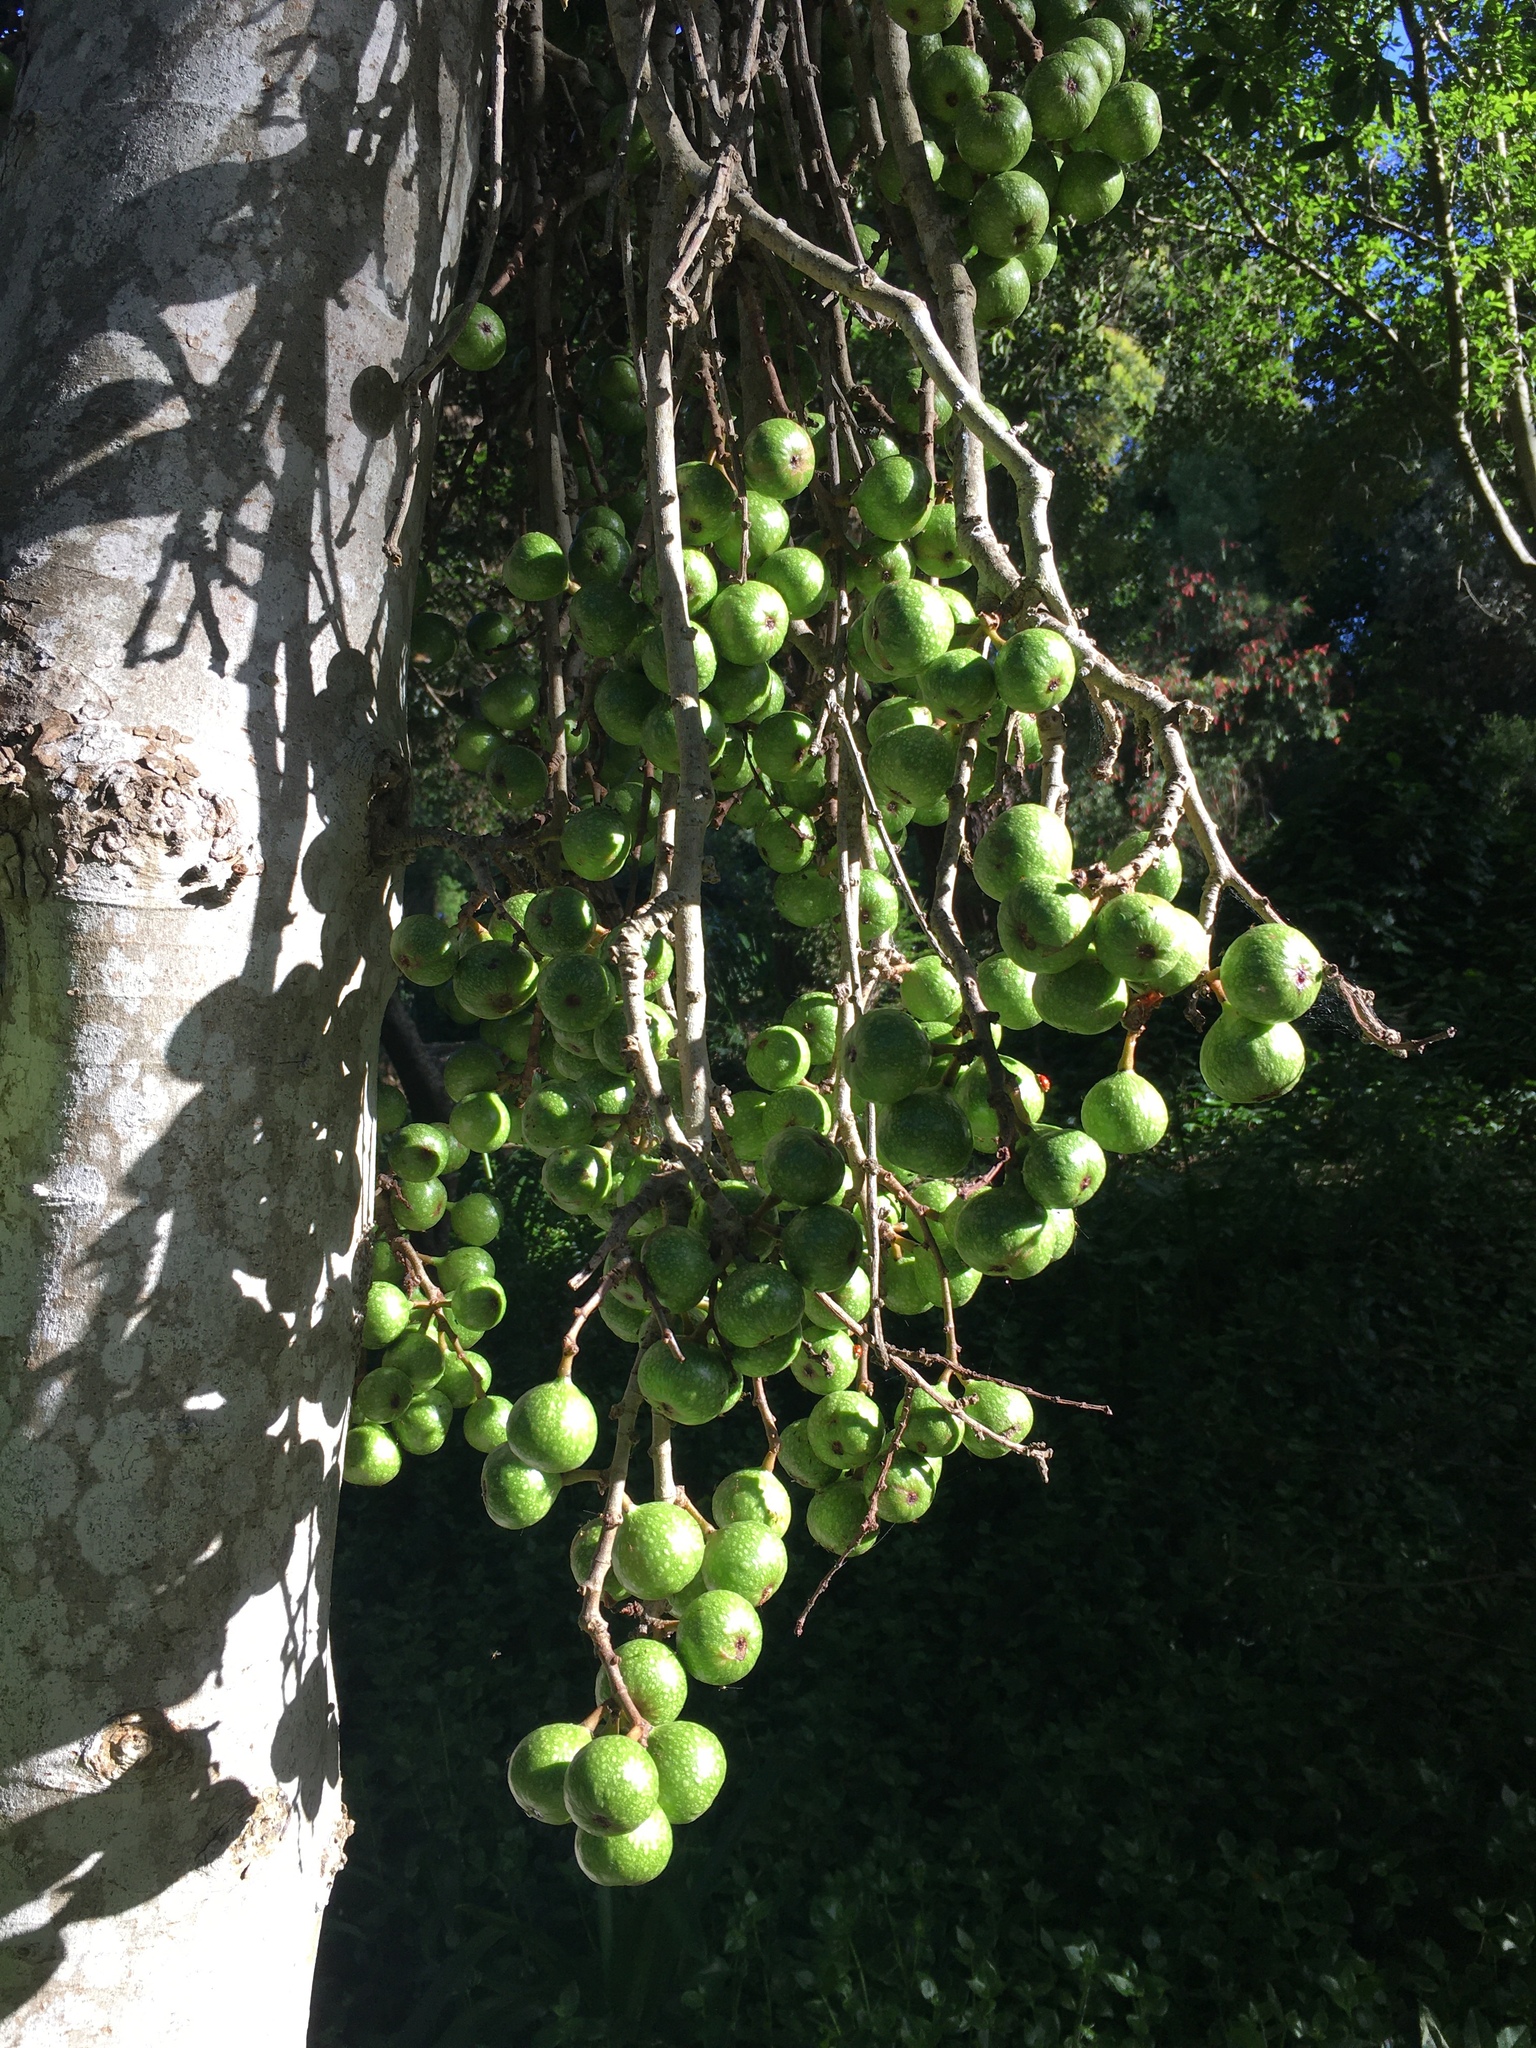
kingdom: Plantae
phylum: Tracheophyta
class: Magnoliopsida
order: Rosales
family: Moraceae
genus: Ficus
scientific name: Ficus sur
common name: Cape fig
